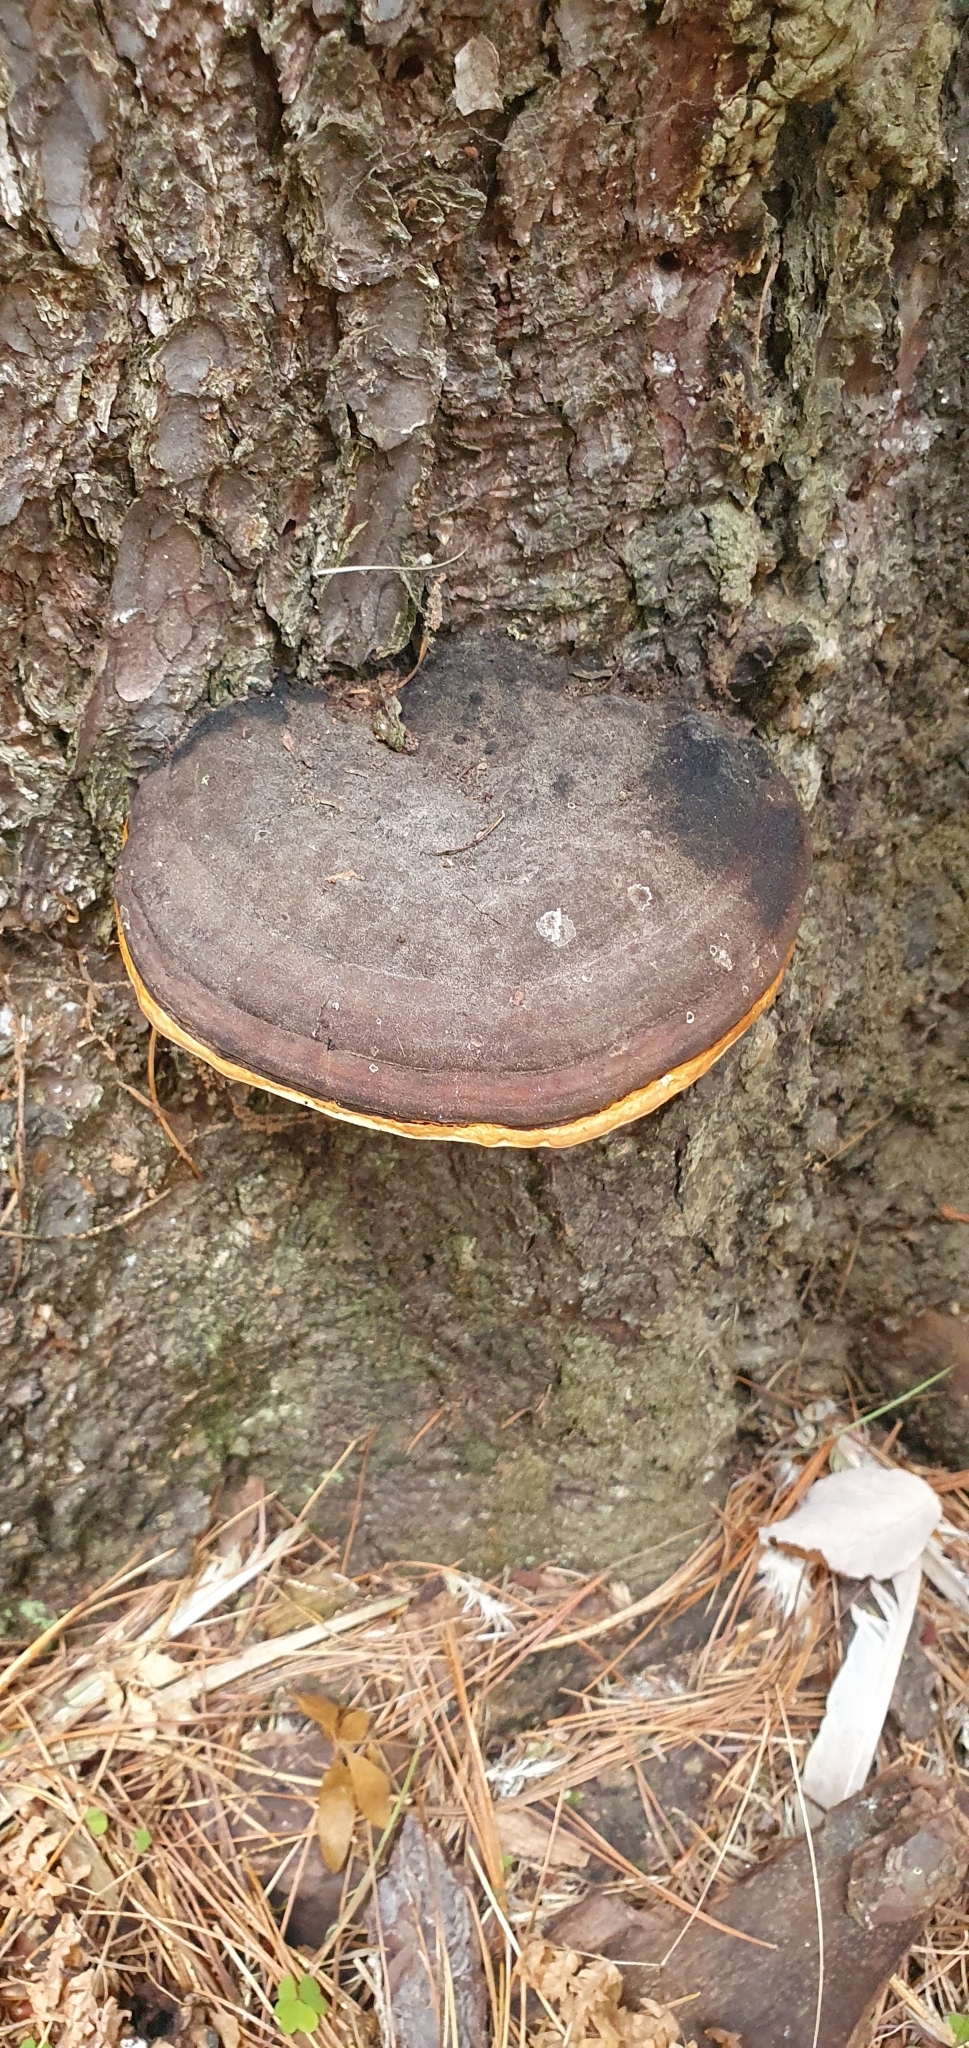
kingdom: Fungi
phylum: Basidiomycota
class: Agaricomycetes
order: Polyporales
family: Fomitopsidaceae
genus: Fomitopsis
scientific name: Fomitopsis pinicola
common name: Red-belted bracket
